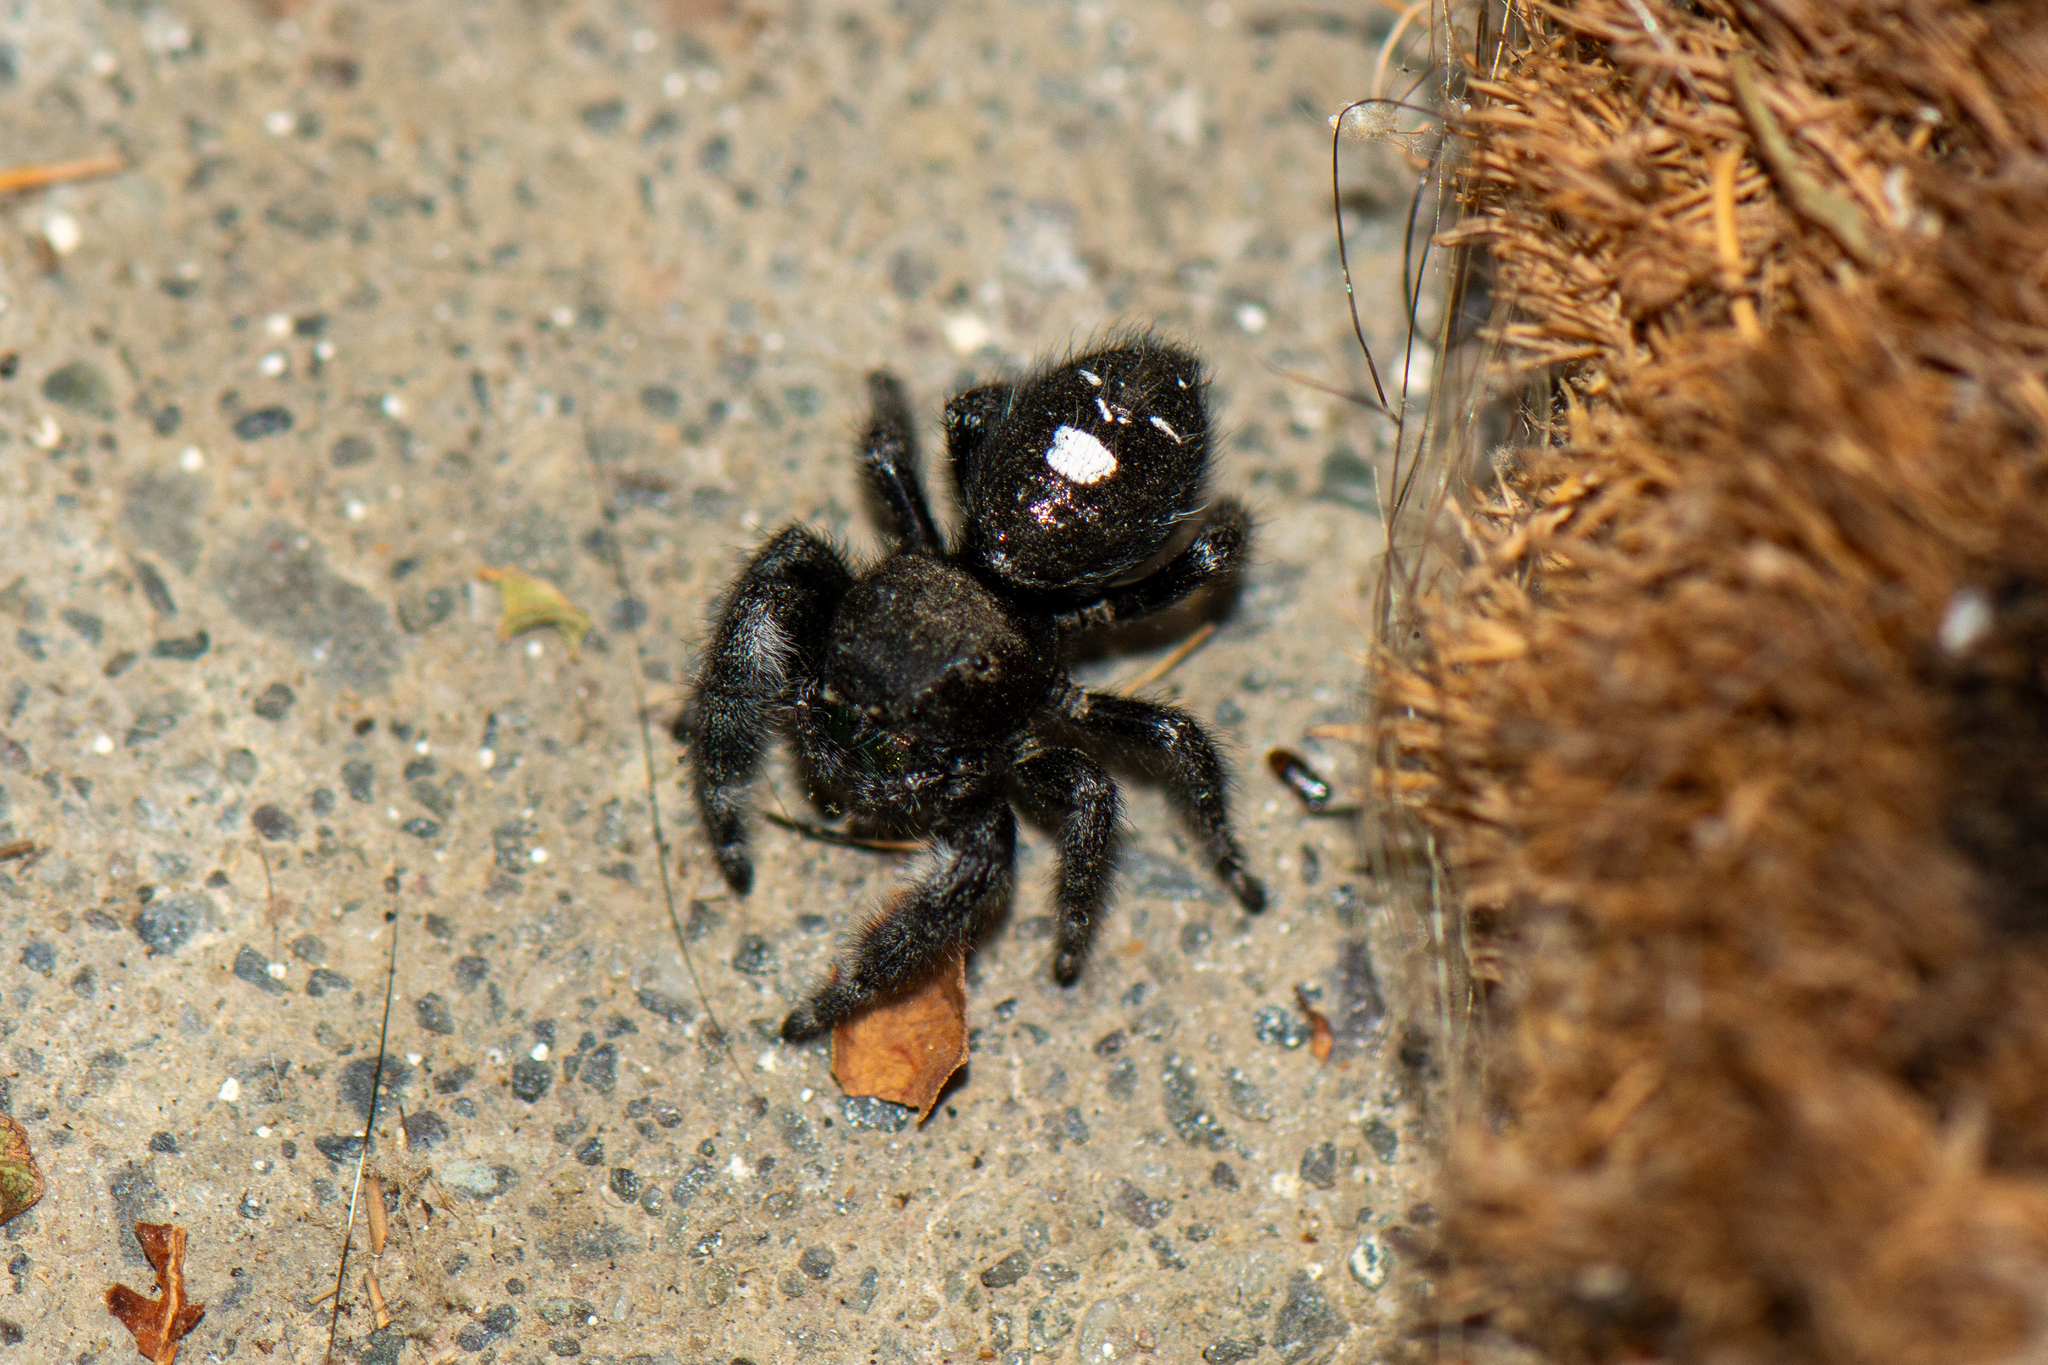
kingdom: Animalia
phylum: Arthropoda
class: Arachnida
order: Araneae
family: Salticidae
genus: Phidippus
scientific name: Phidippus audax
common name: Bold jumper
